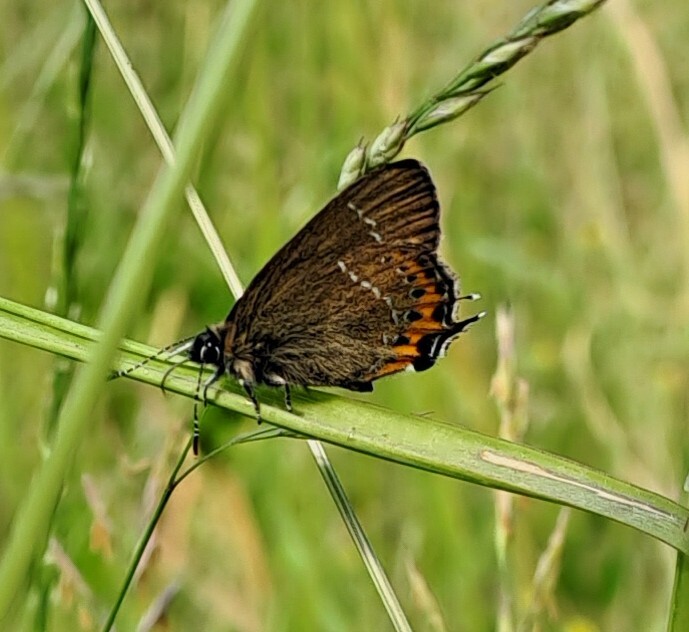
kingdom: Animalia
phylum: Arthropoda
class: Insecta
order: Lepidoptera
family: Lycaenidae
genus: Fixsenia
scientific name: Fixsenia pruni
